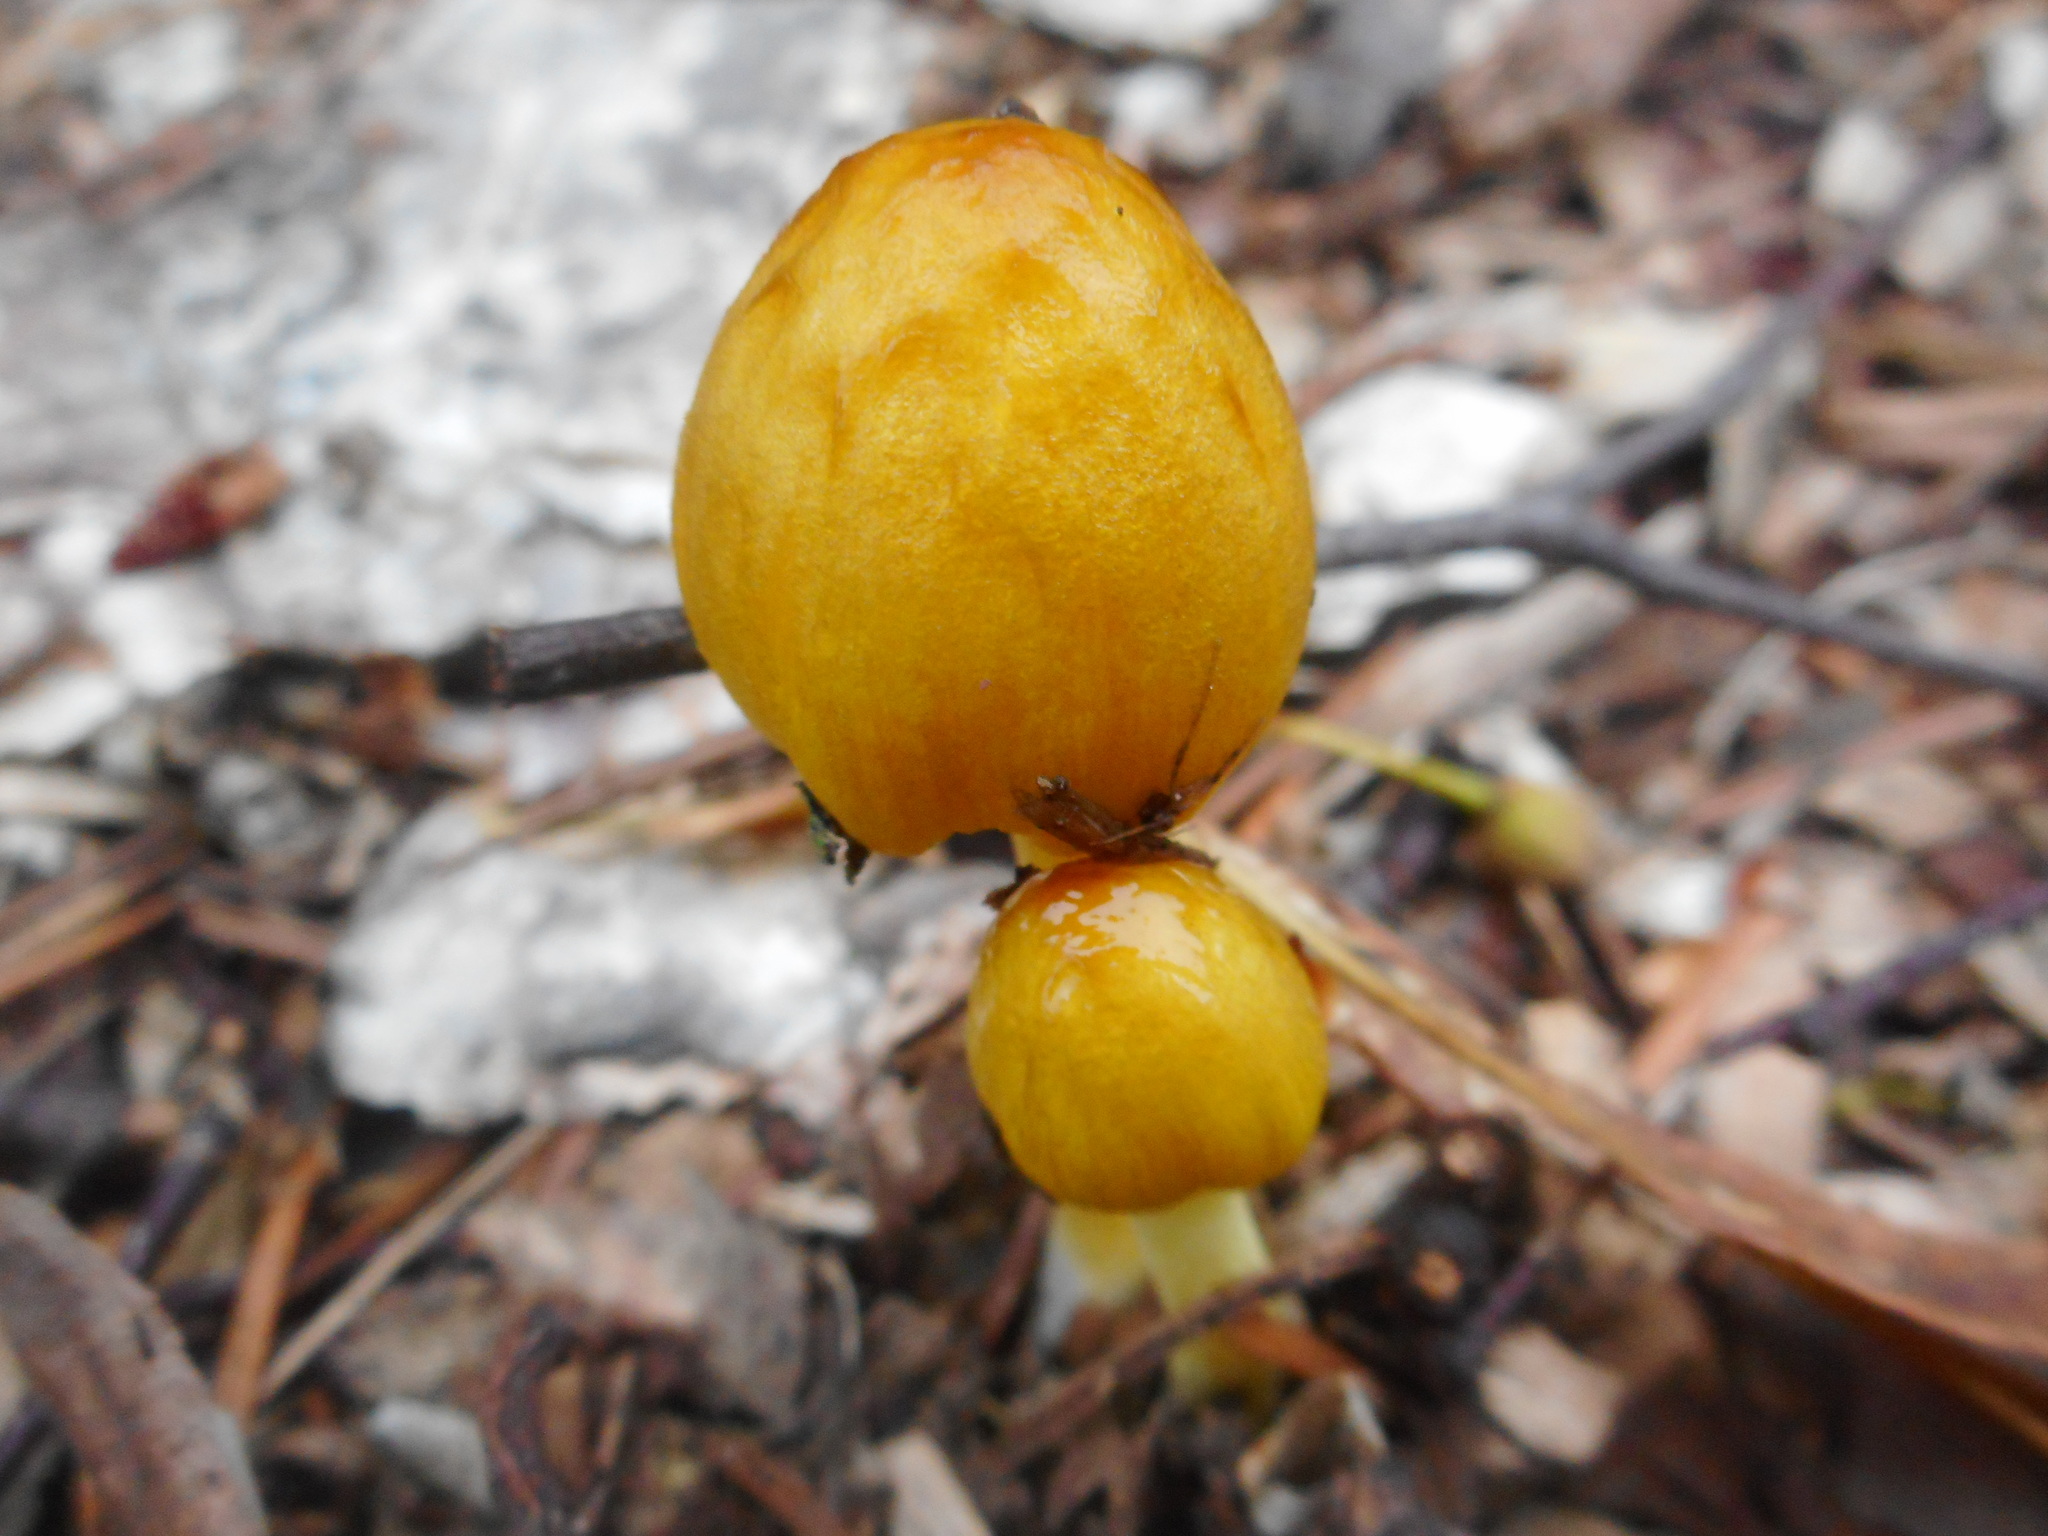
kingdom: Fungi
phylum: Basidiomycota
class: Agaricomycetes
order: Agaricales
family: Bolbitiaceae
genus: Bolbitius
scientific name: Bolbitius titubans
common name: Yellow fieldcap
